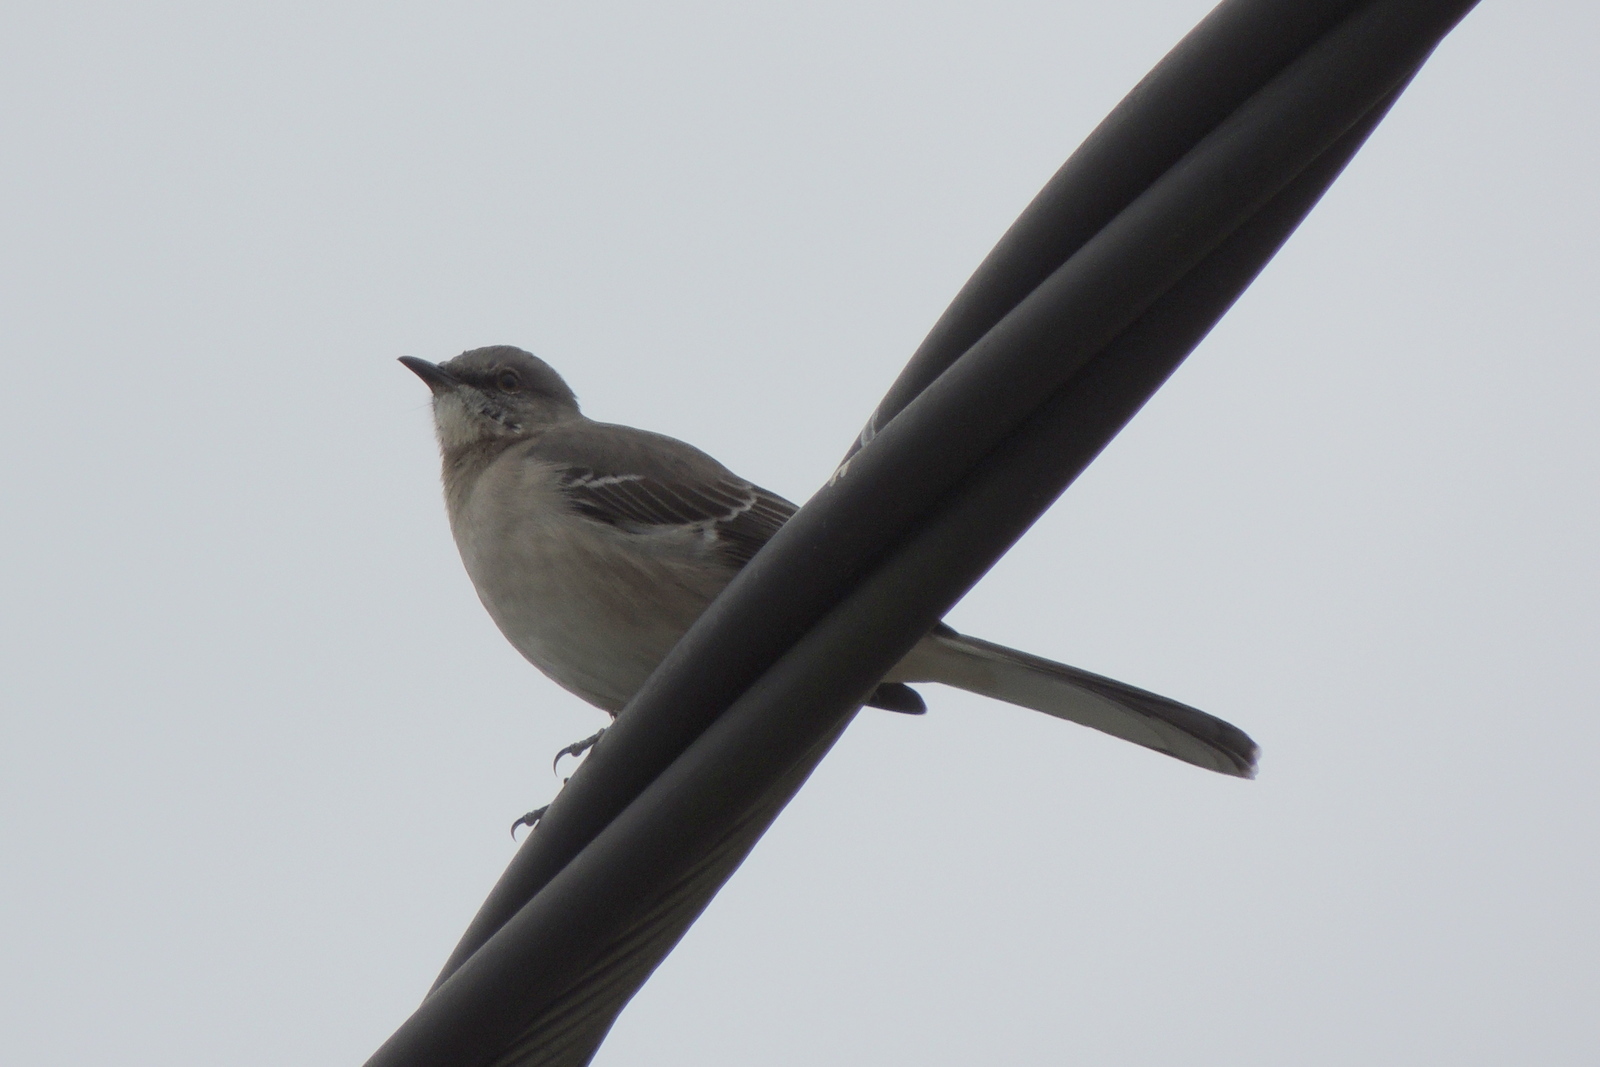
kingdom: Animalia
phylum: Chordata
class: Aves
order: Passeriformes
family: Mimidae
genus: Mimus
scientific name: Mimus polyglottos
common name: Northern mockingbird
